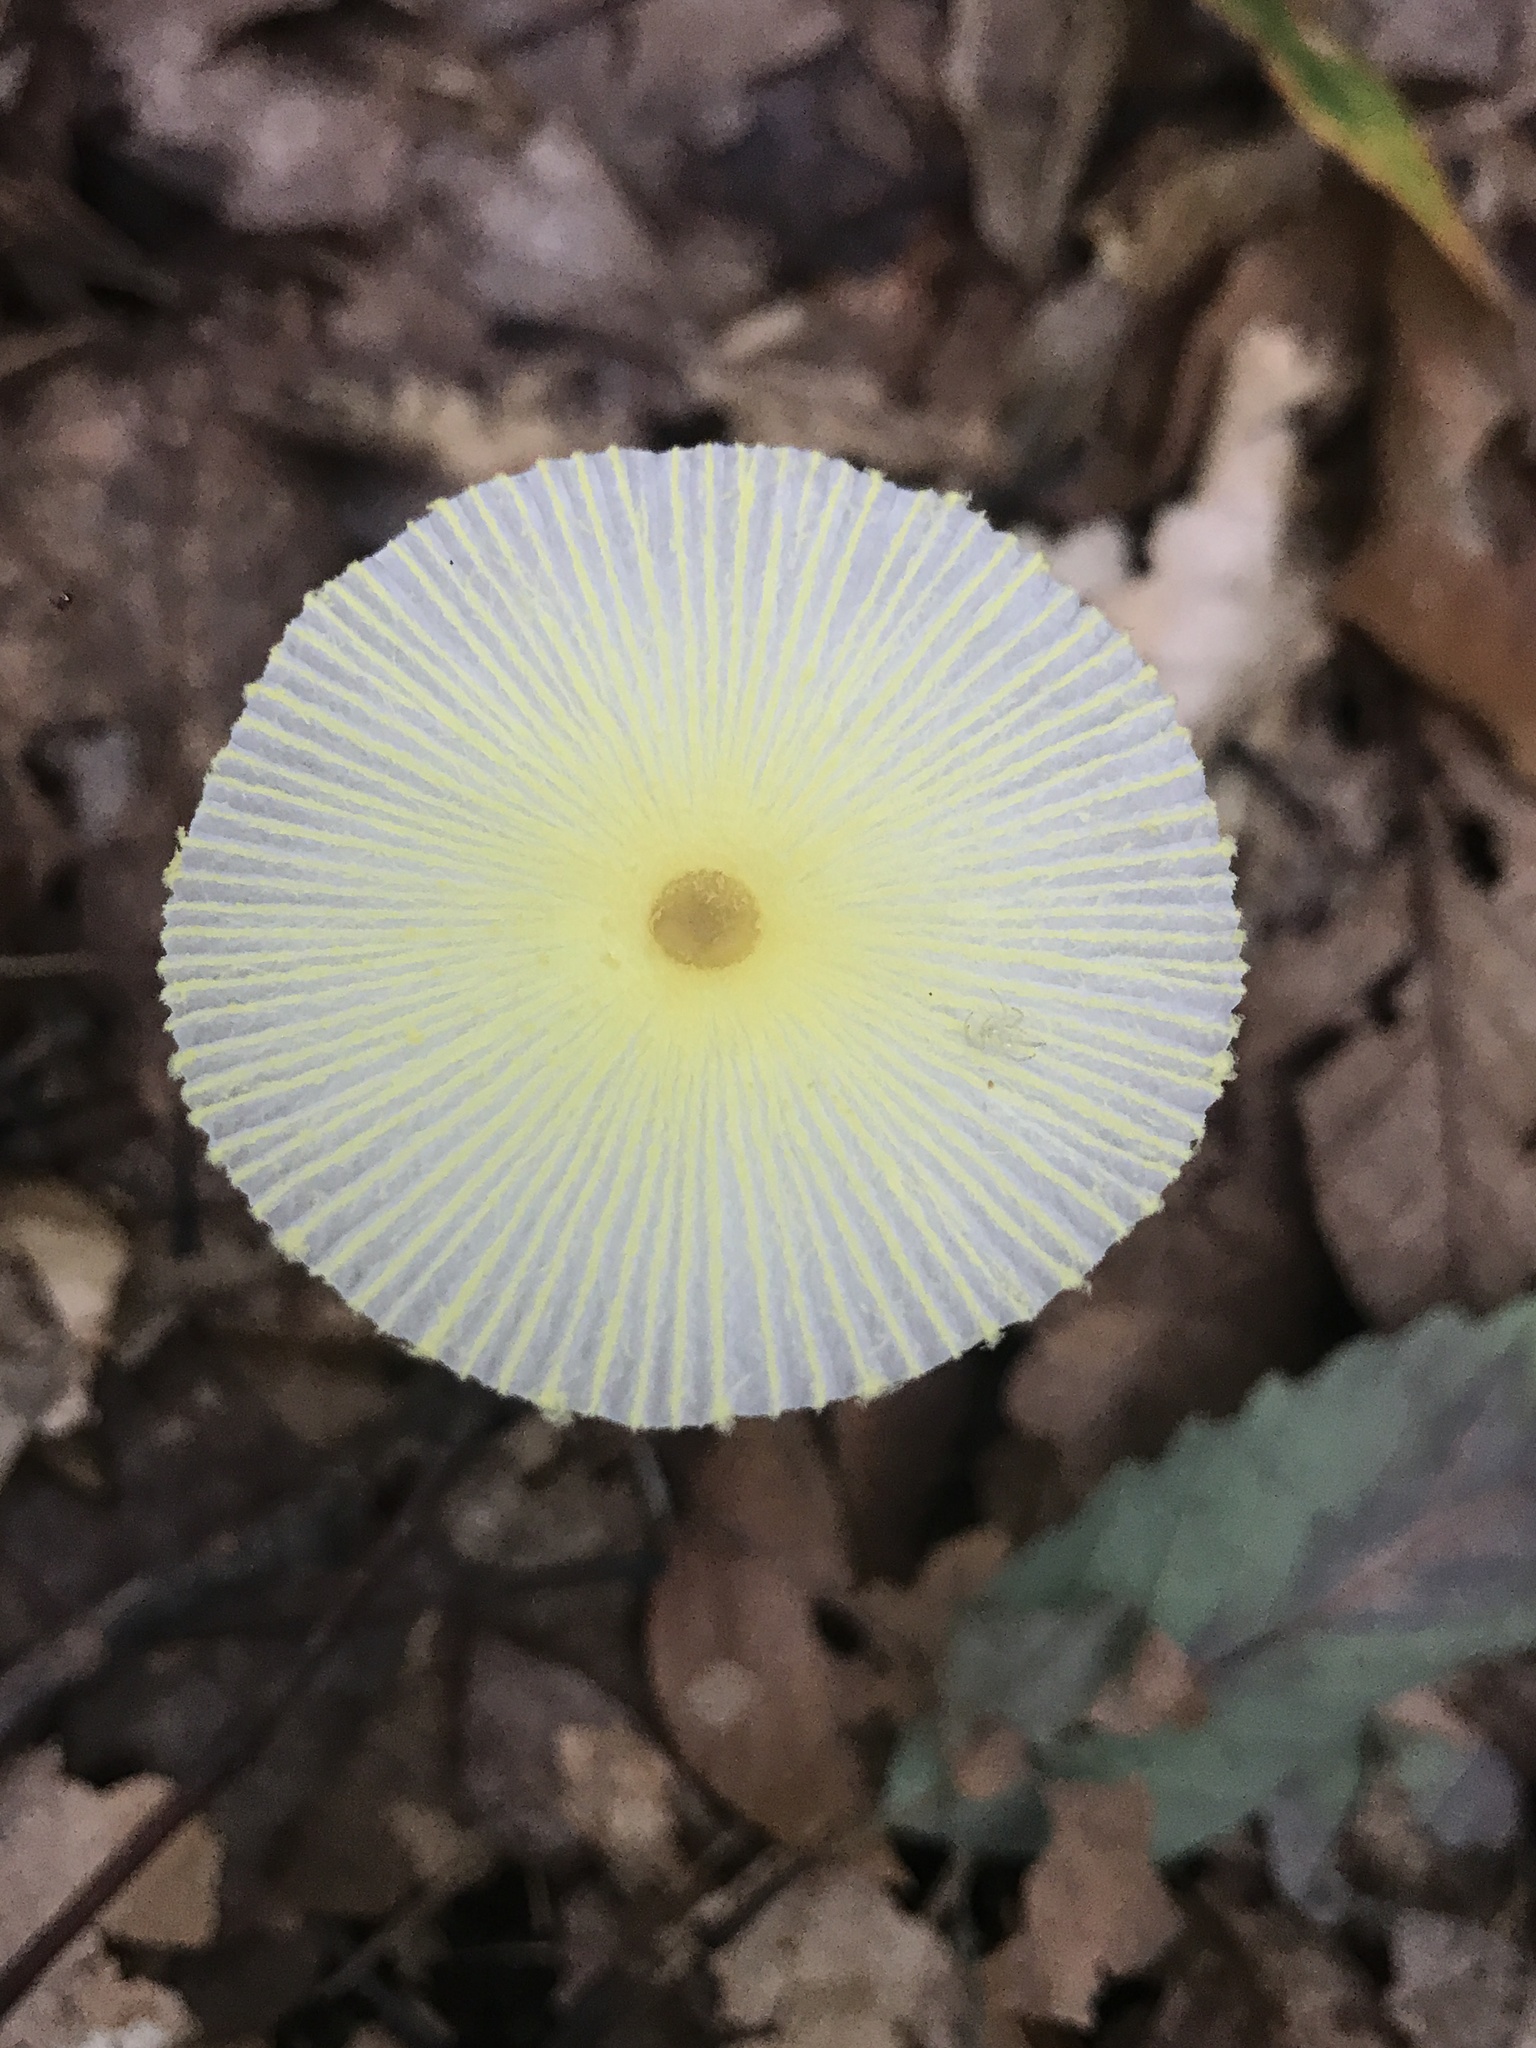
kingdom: Fungi
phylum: Basidiomycota
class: Agaricomycetes
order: Agaricales
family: Agaricaceae
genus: Leucocoprinus
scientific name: Leucocoprinus fragilissimus
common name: Fragile dapperling
